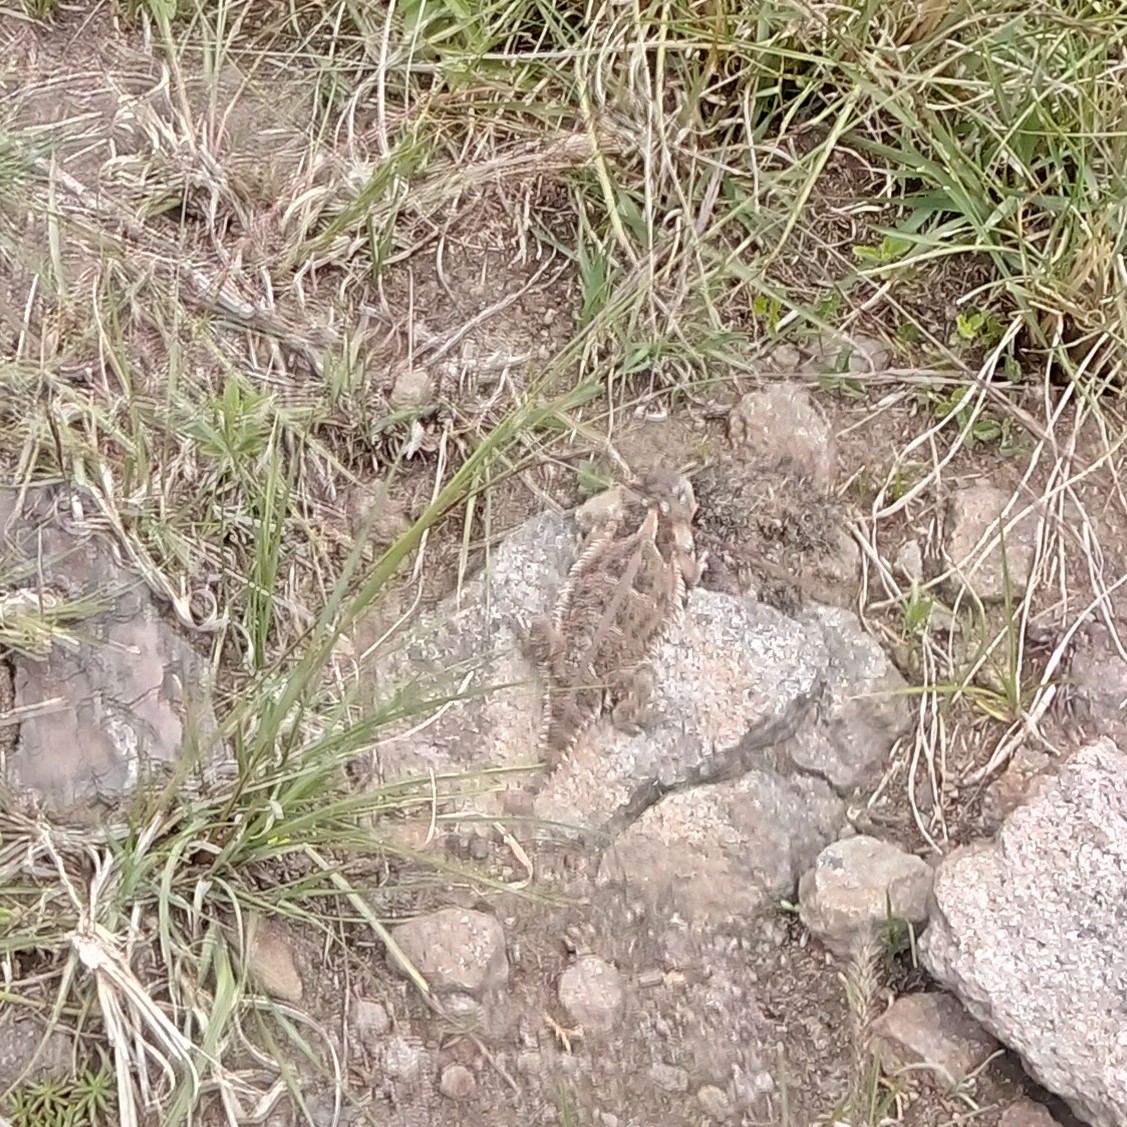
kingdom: Animalia
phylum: Chordata
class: Squamata
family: Phrynosomatidae
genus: Phrynosoma
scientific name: Phrynosoma orbiculare
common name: Mountain horned lizard
